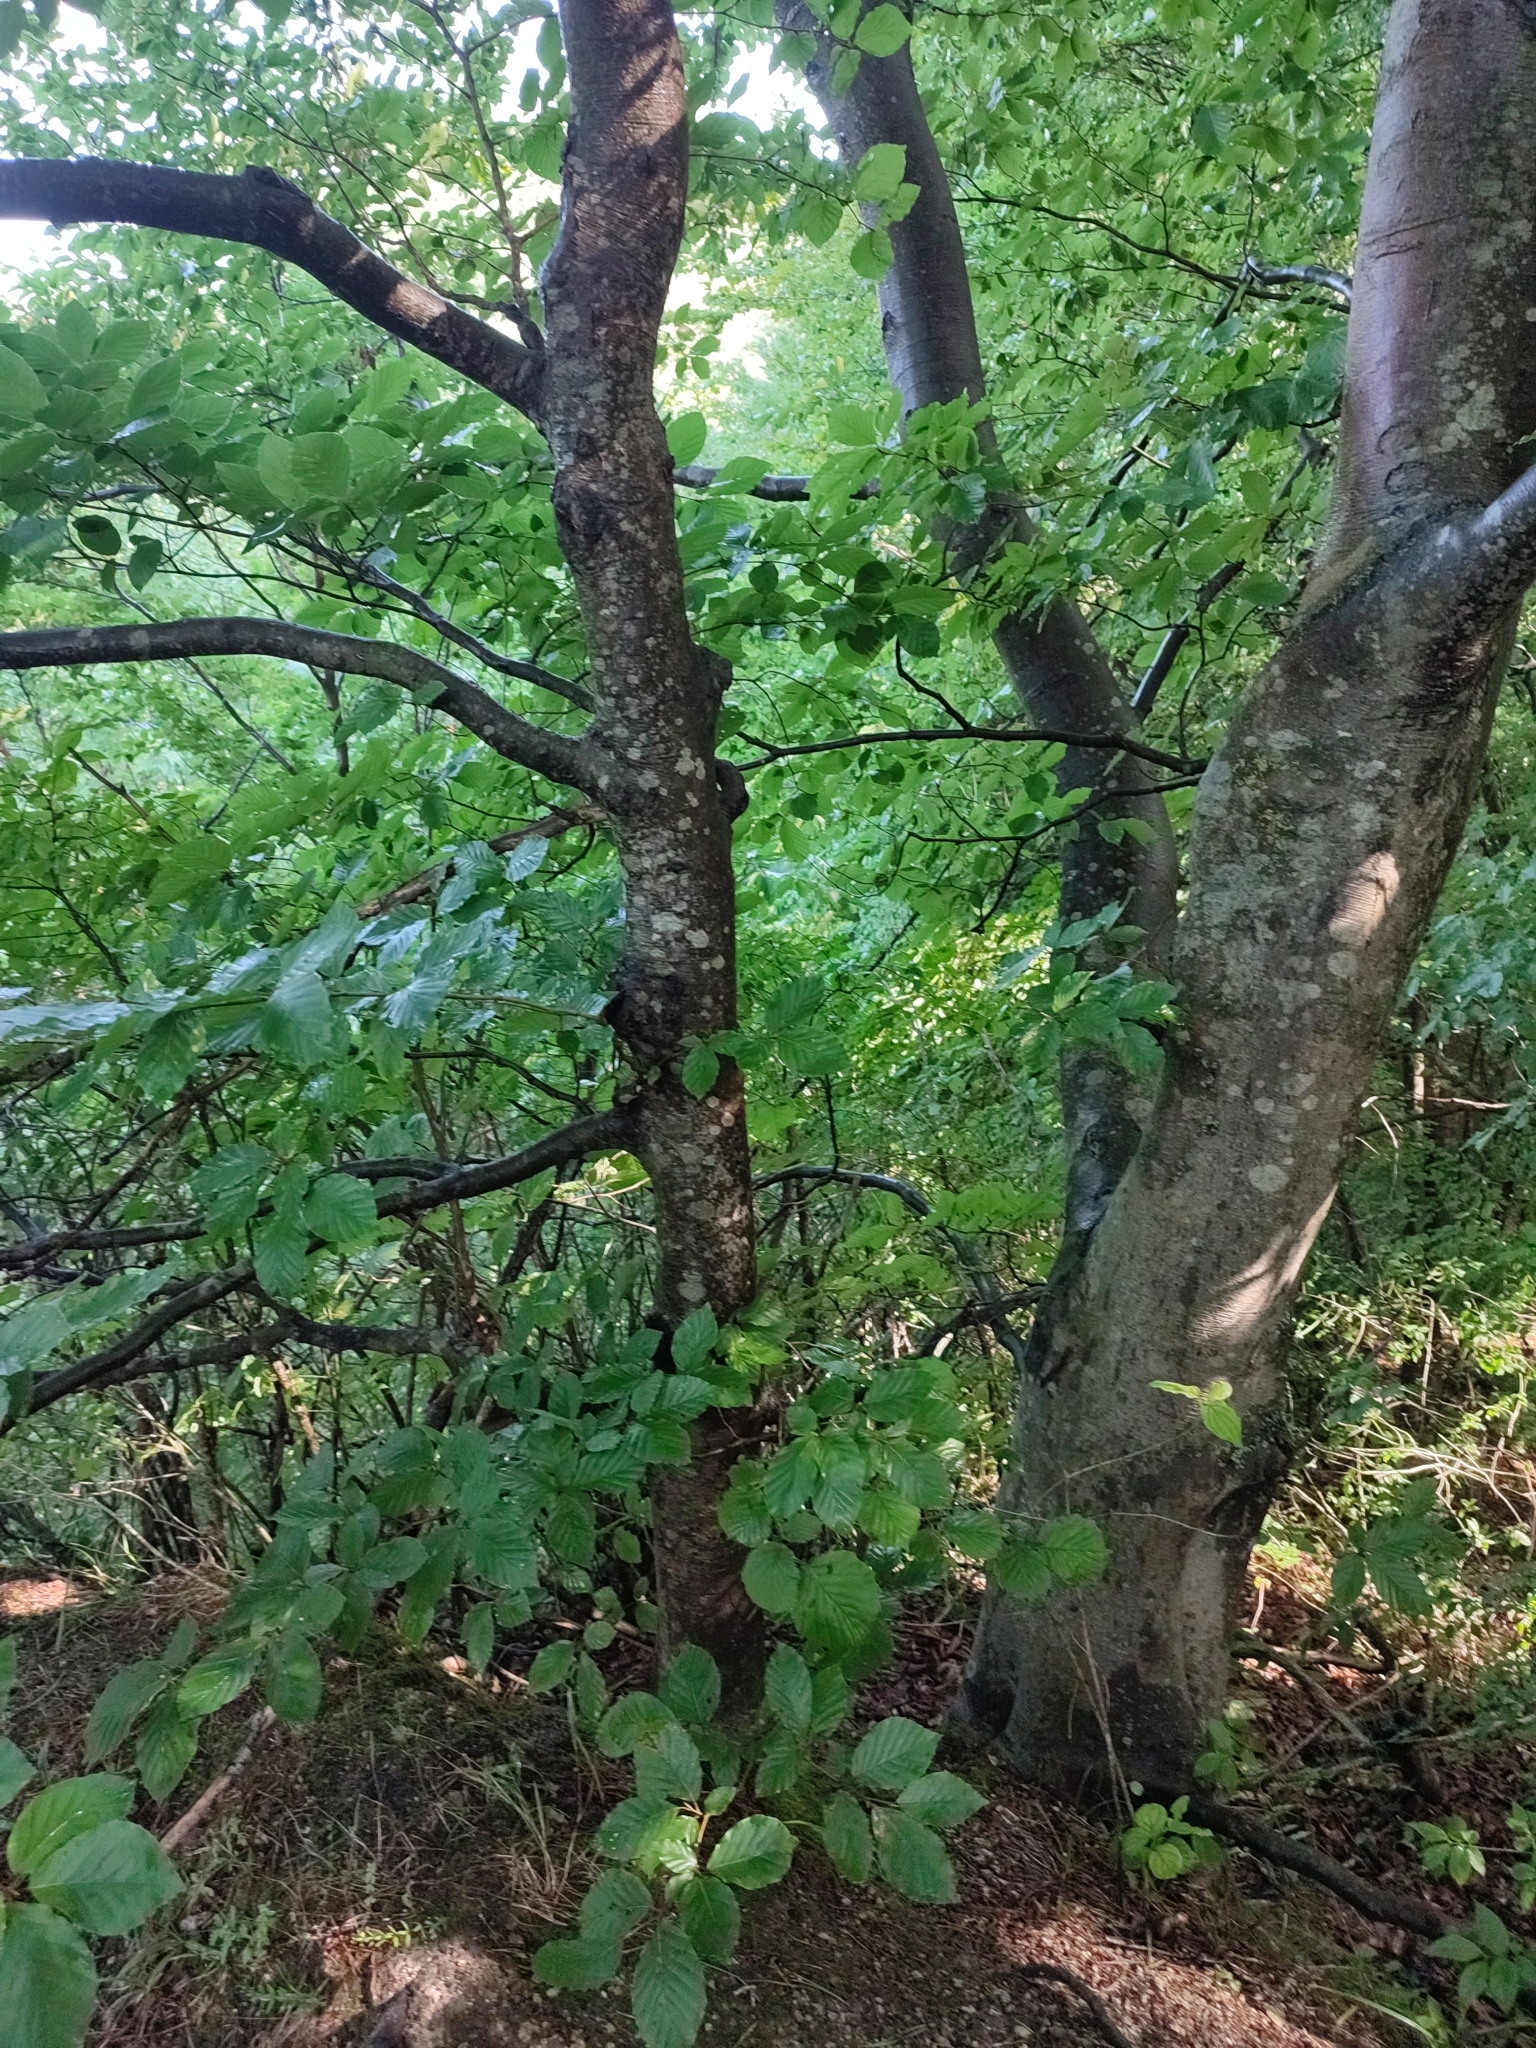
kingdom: Plantae
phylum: Tracheophyta
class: Magnoliopsida
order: Fagales
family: Fagaceae
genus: Fagus
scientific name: Fagus sylvatica
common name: Beech
